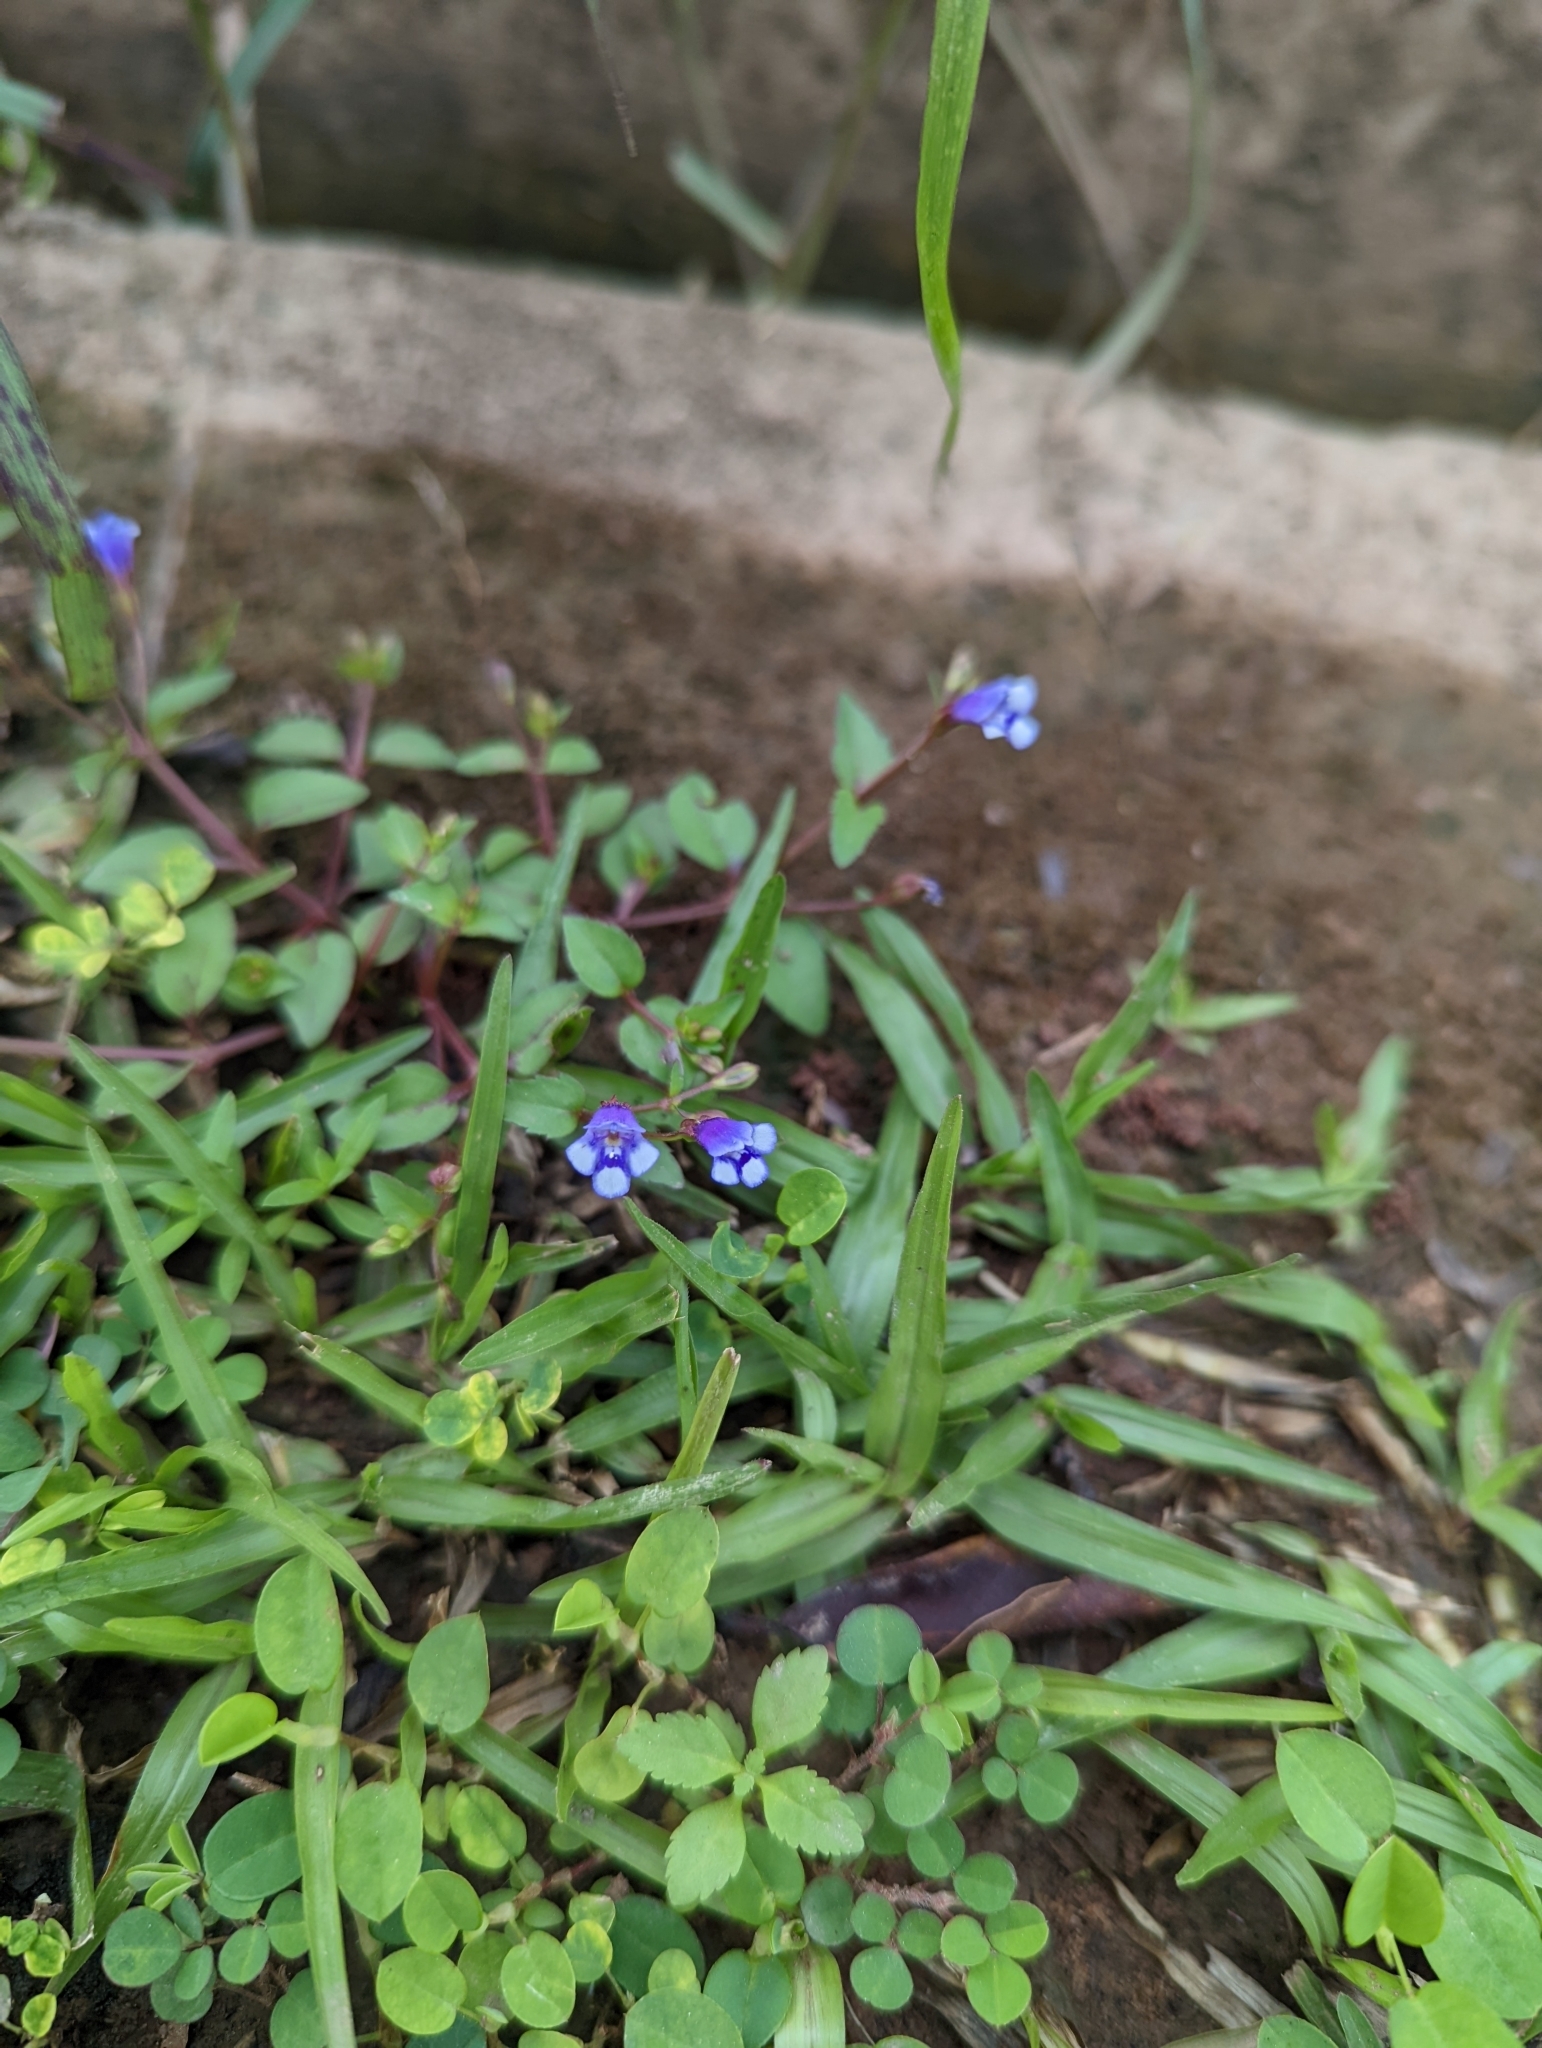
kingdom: Plantae
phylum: Tracheophyta
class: Magnoliopsida
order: Lamiales
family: Linderniaceae
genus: Torenia
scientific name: Torenia crustacea
